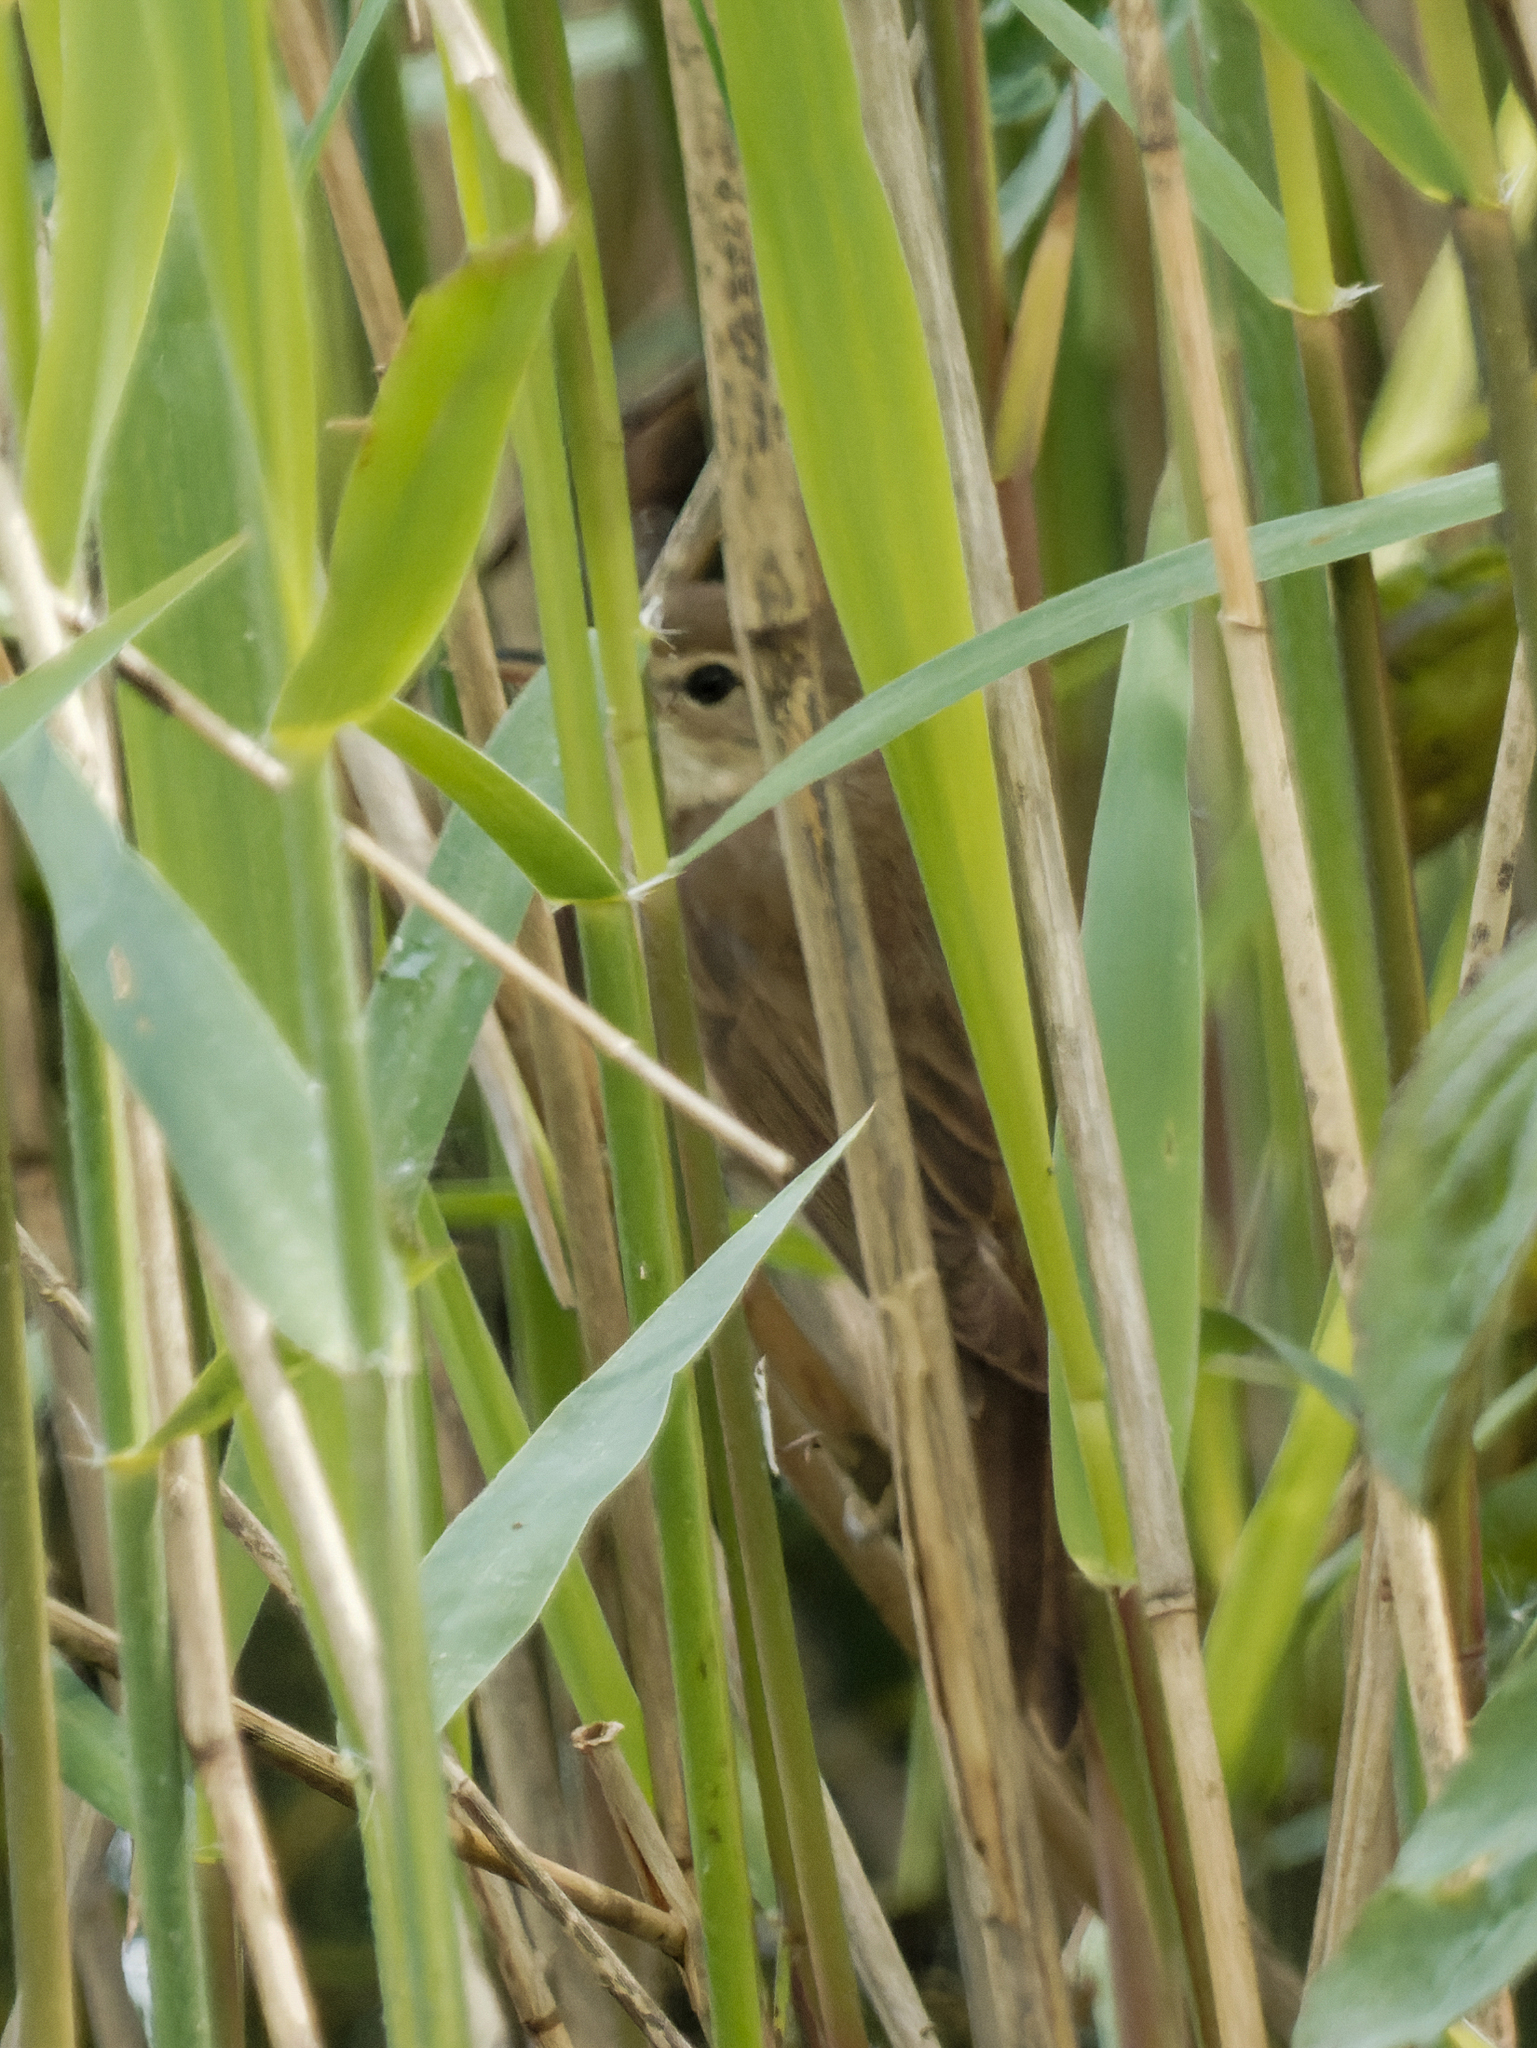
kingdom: Animalia
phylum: Chordata
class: Aves
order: Passeriformes
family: Acrocephalidae
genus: Acrocephalus
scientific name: Acrocephalus scirpaceus
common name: Eurasian reed warbler
